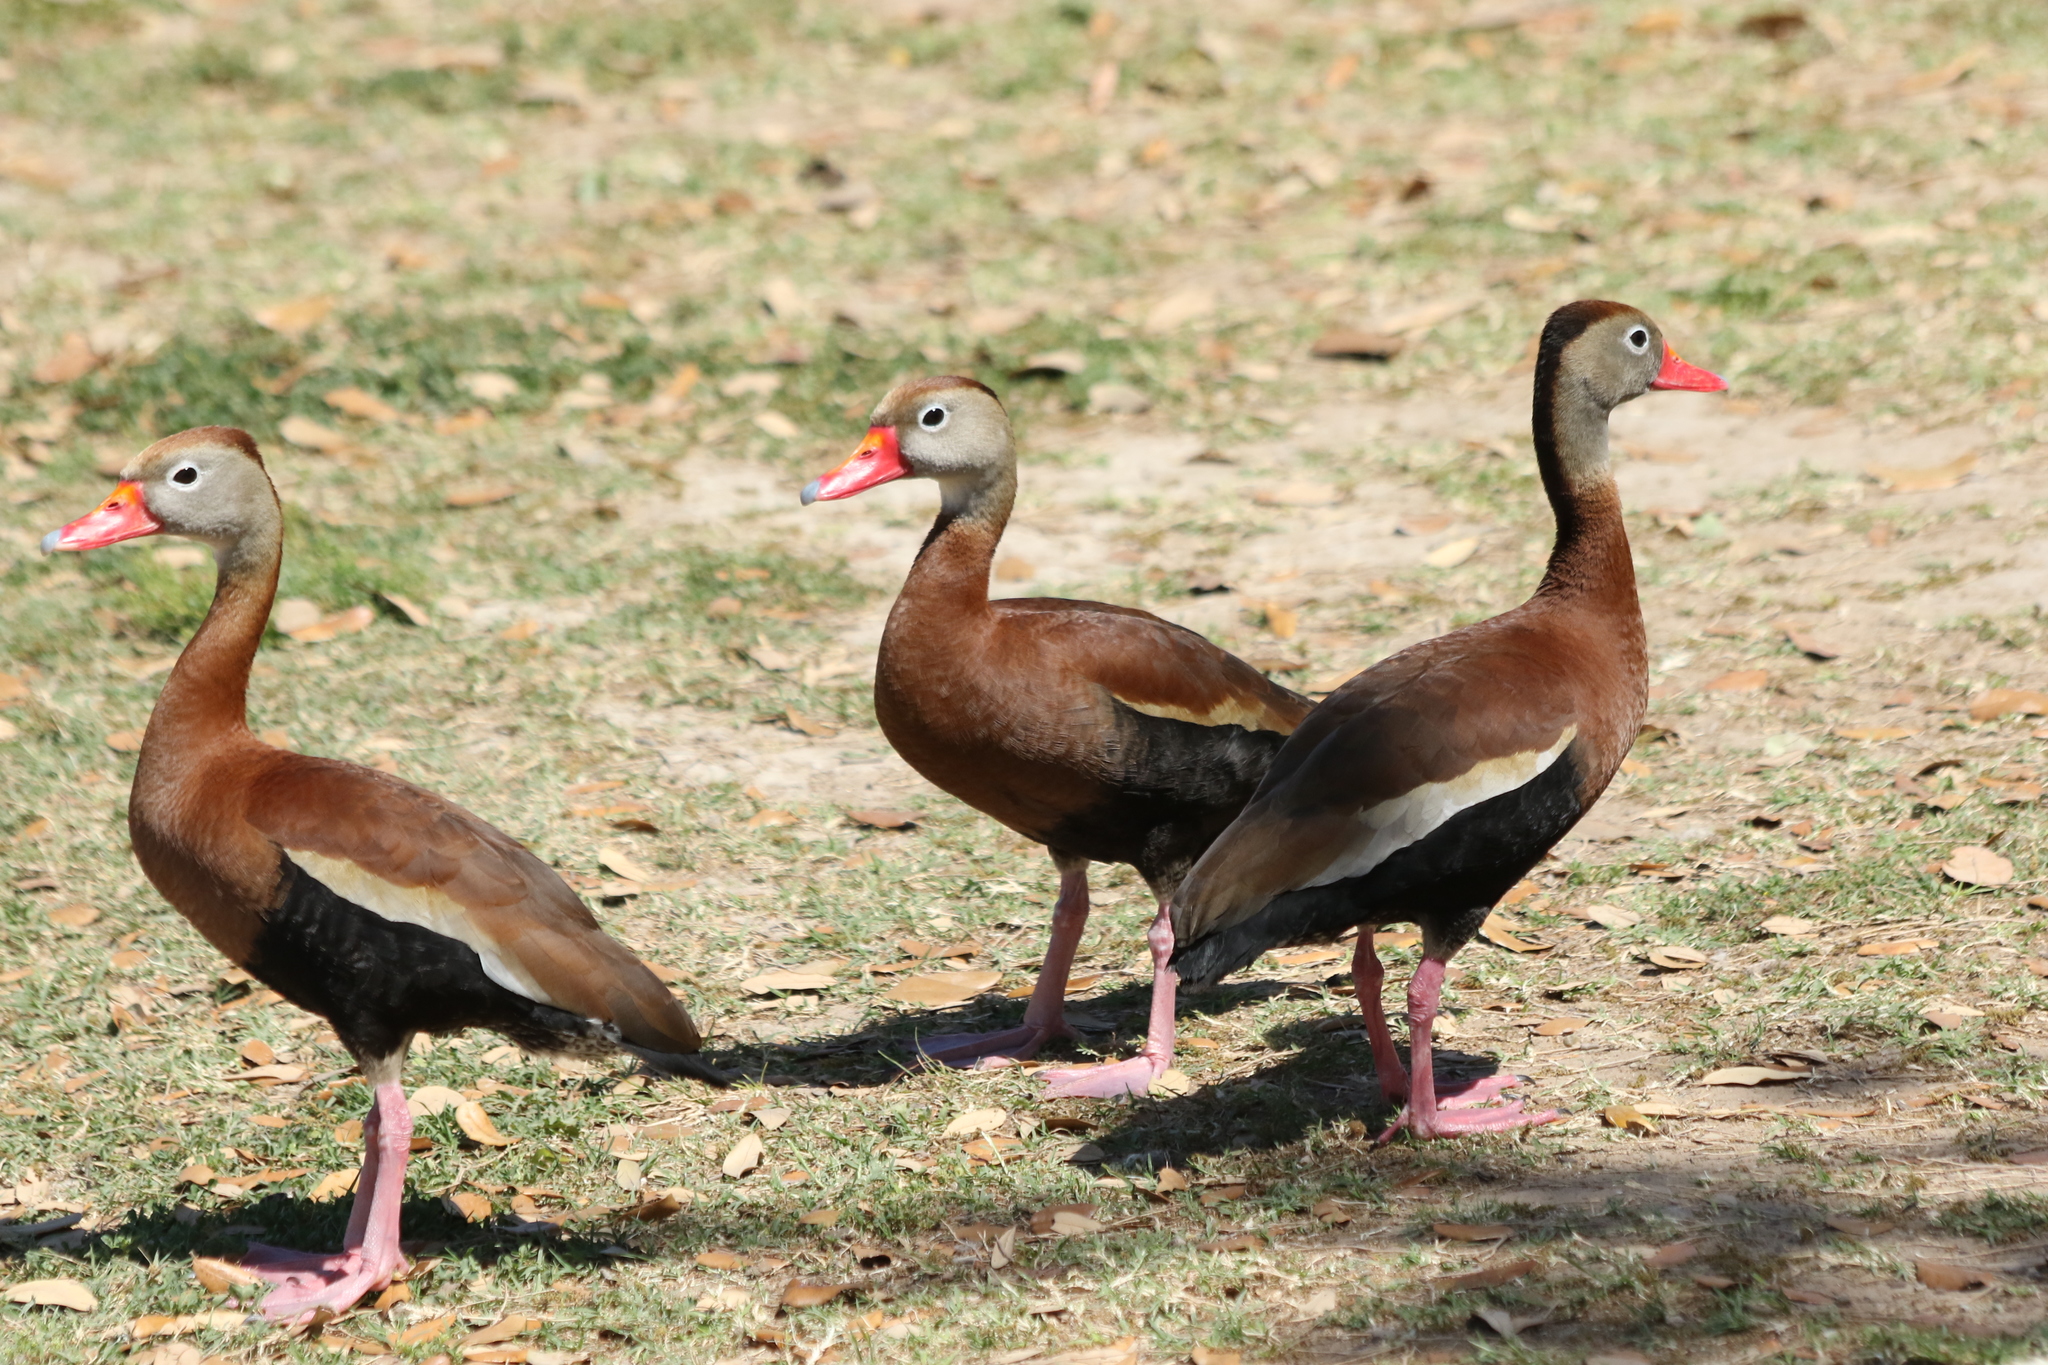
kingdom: Animalia
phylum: Chordata
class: Aves
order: Anseriformes
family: Anatidae
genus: Dendrocygna
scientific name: Dendrocygna autumnalis
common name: Black-bellied whistling duck
